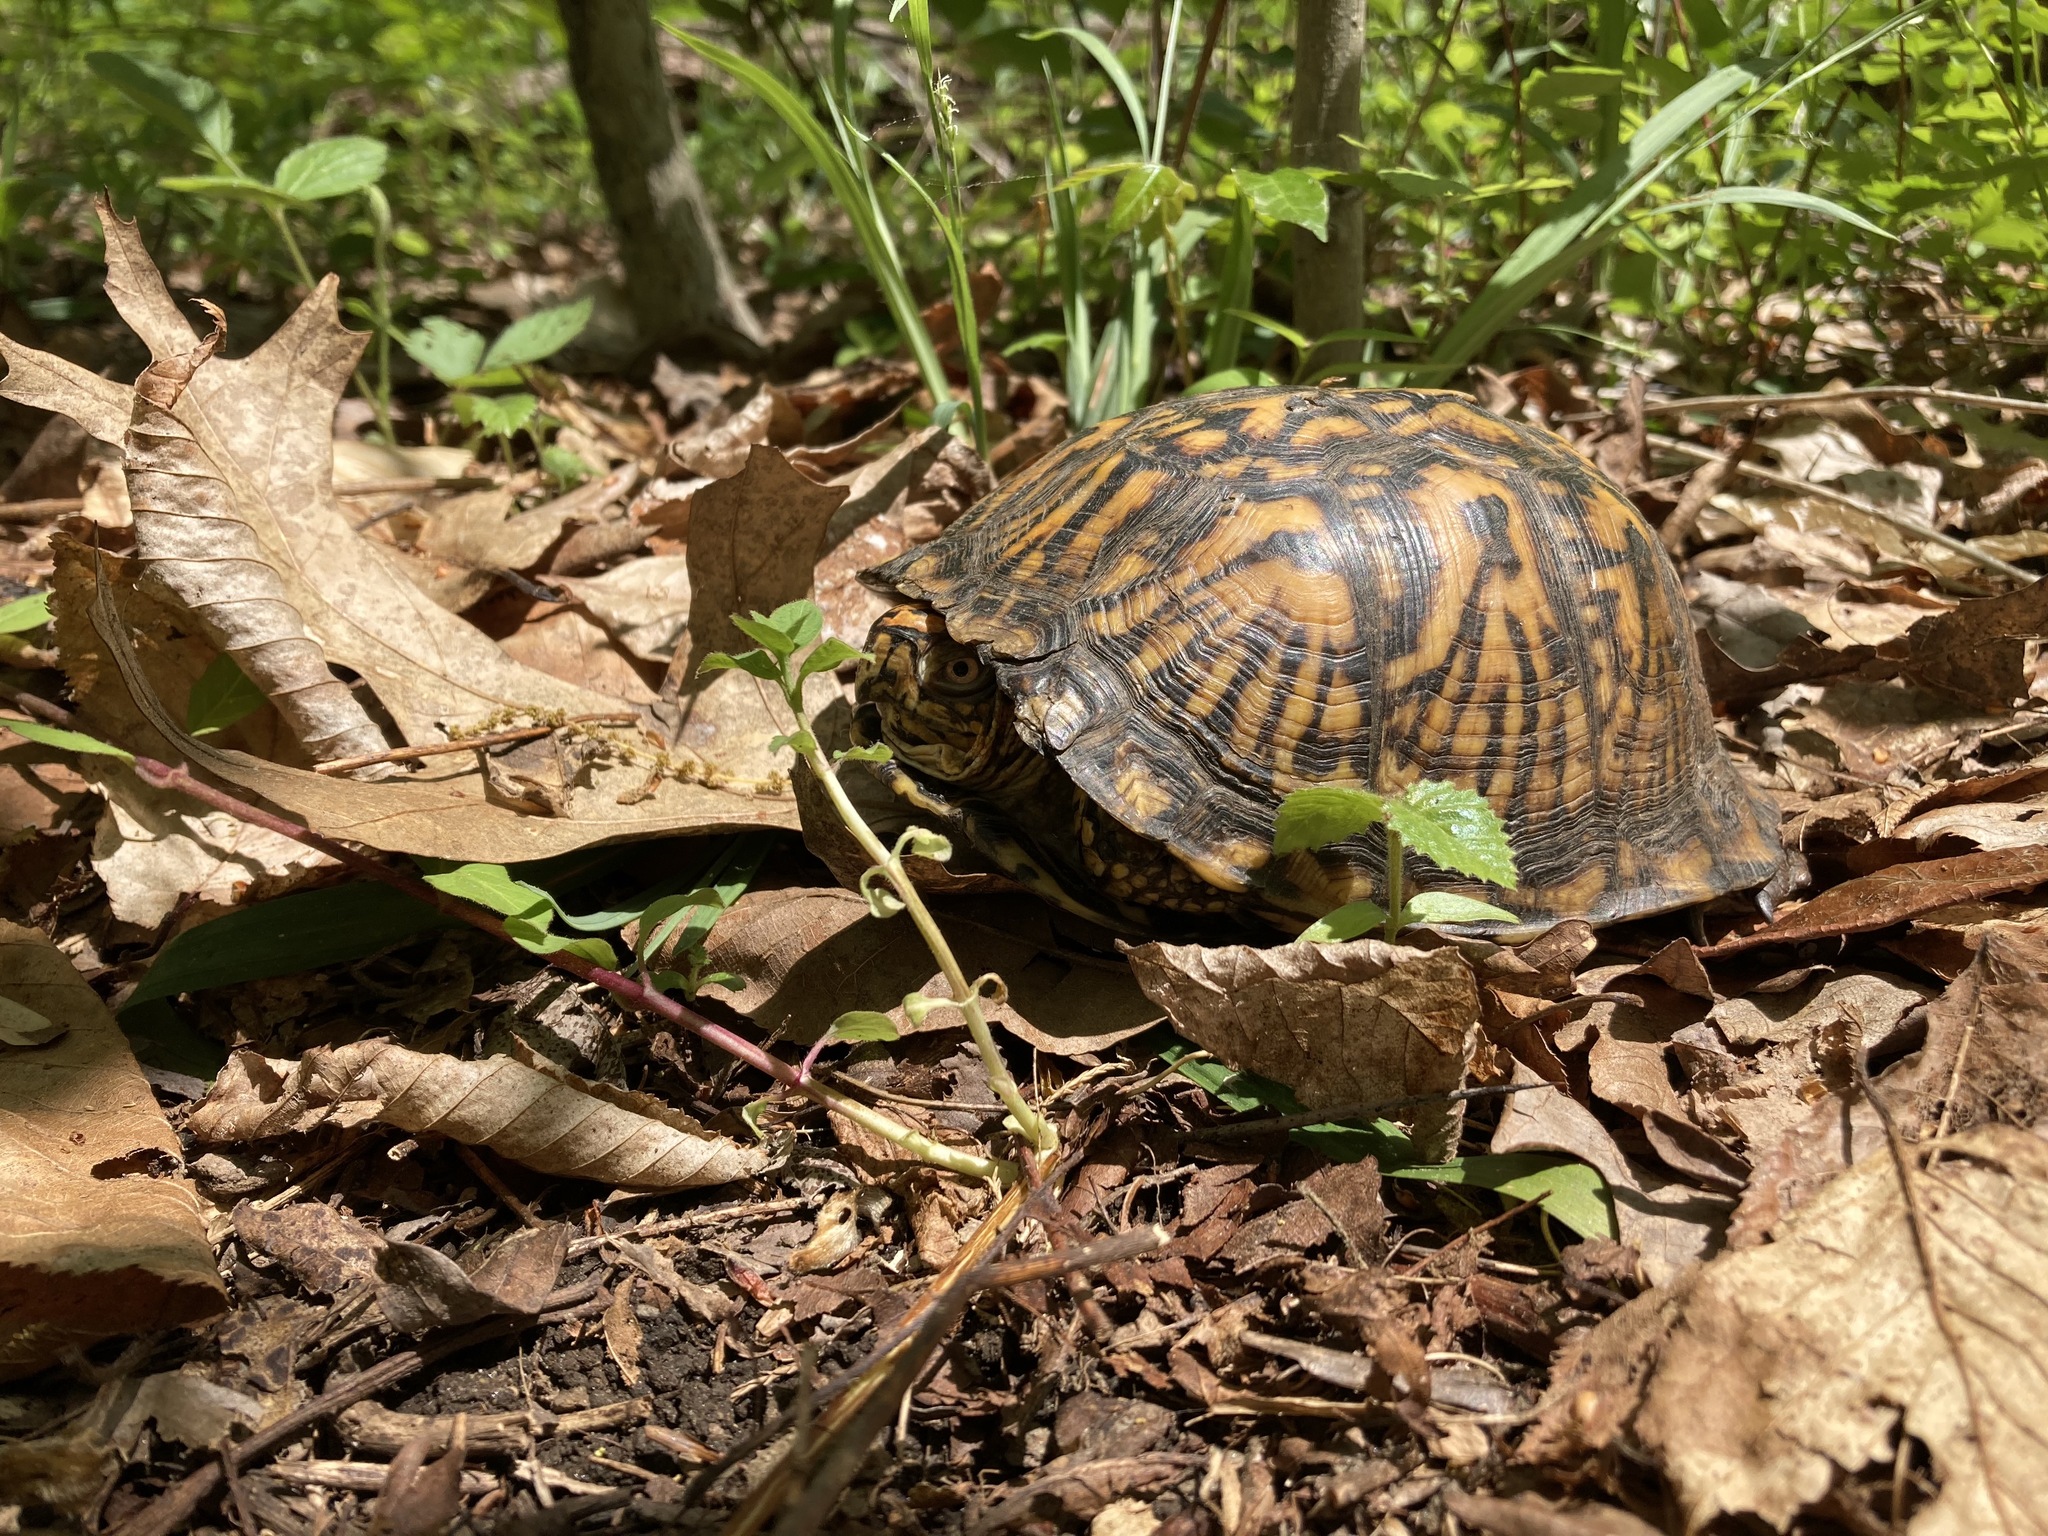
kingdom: Animalia
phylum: Chordata
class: Testudines
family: Emydidae
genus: Terrapene
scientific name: Terrapene carolina
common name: Common box turtle
